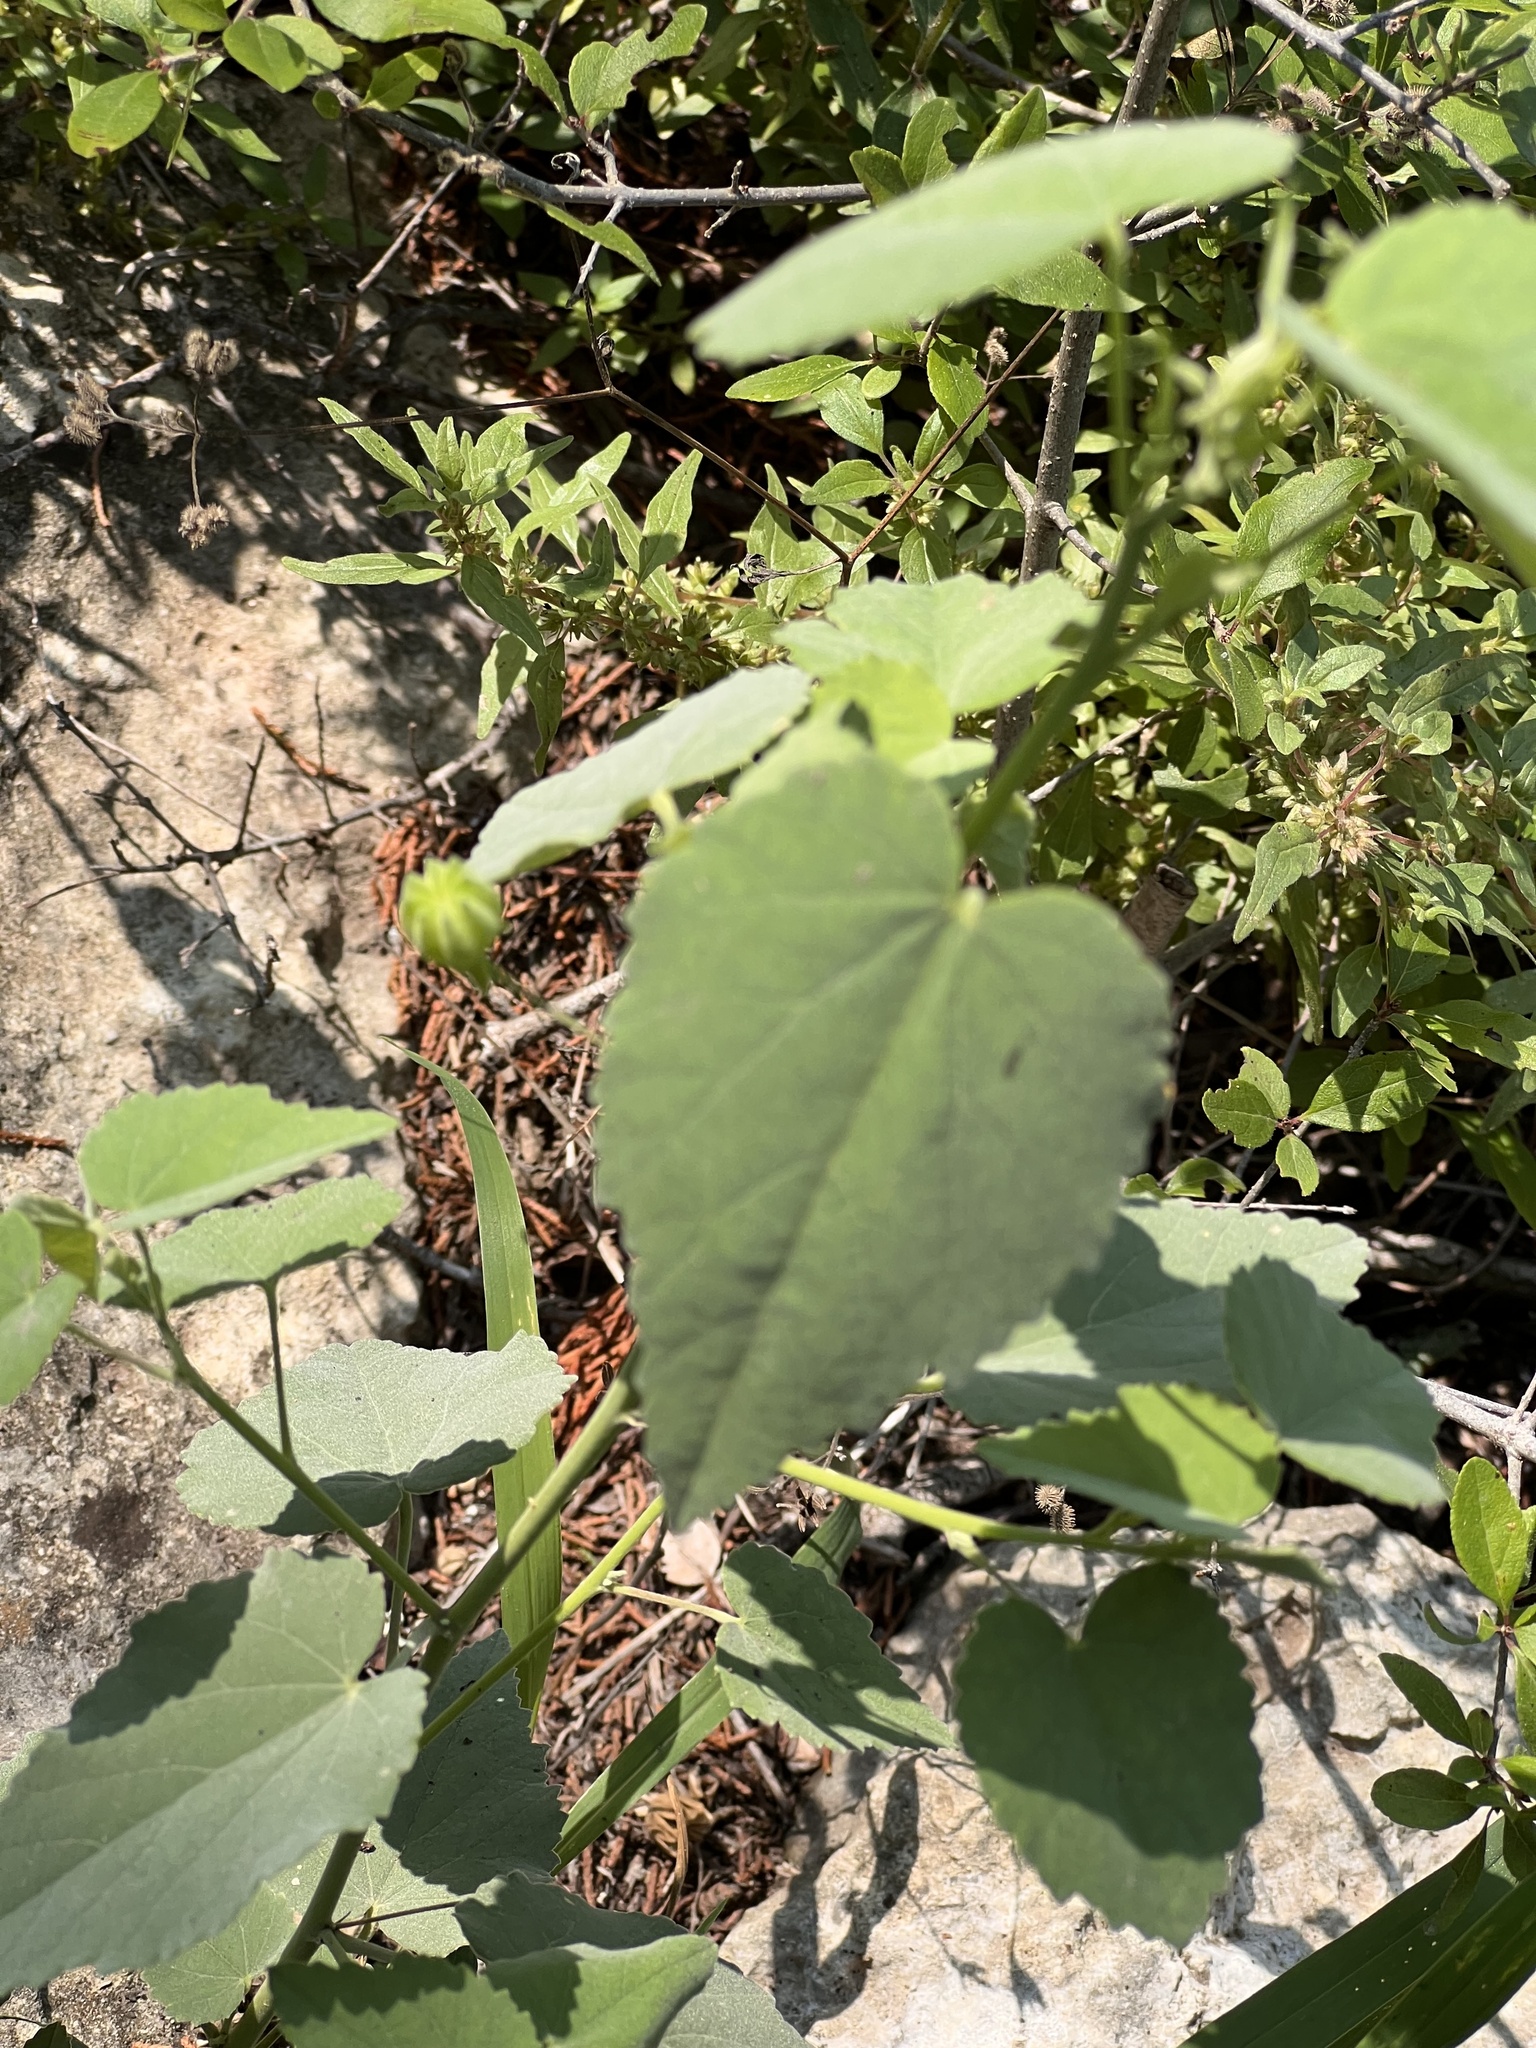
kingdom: Plantae
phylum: Tracheophyta
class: Magnoliopsida
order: Malvales
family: Malvaceae
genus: Abutilon
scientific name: Abutilon fruticosum
